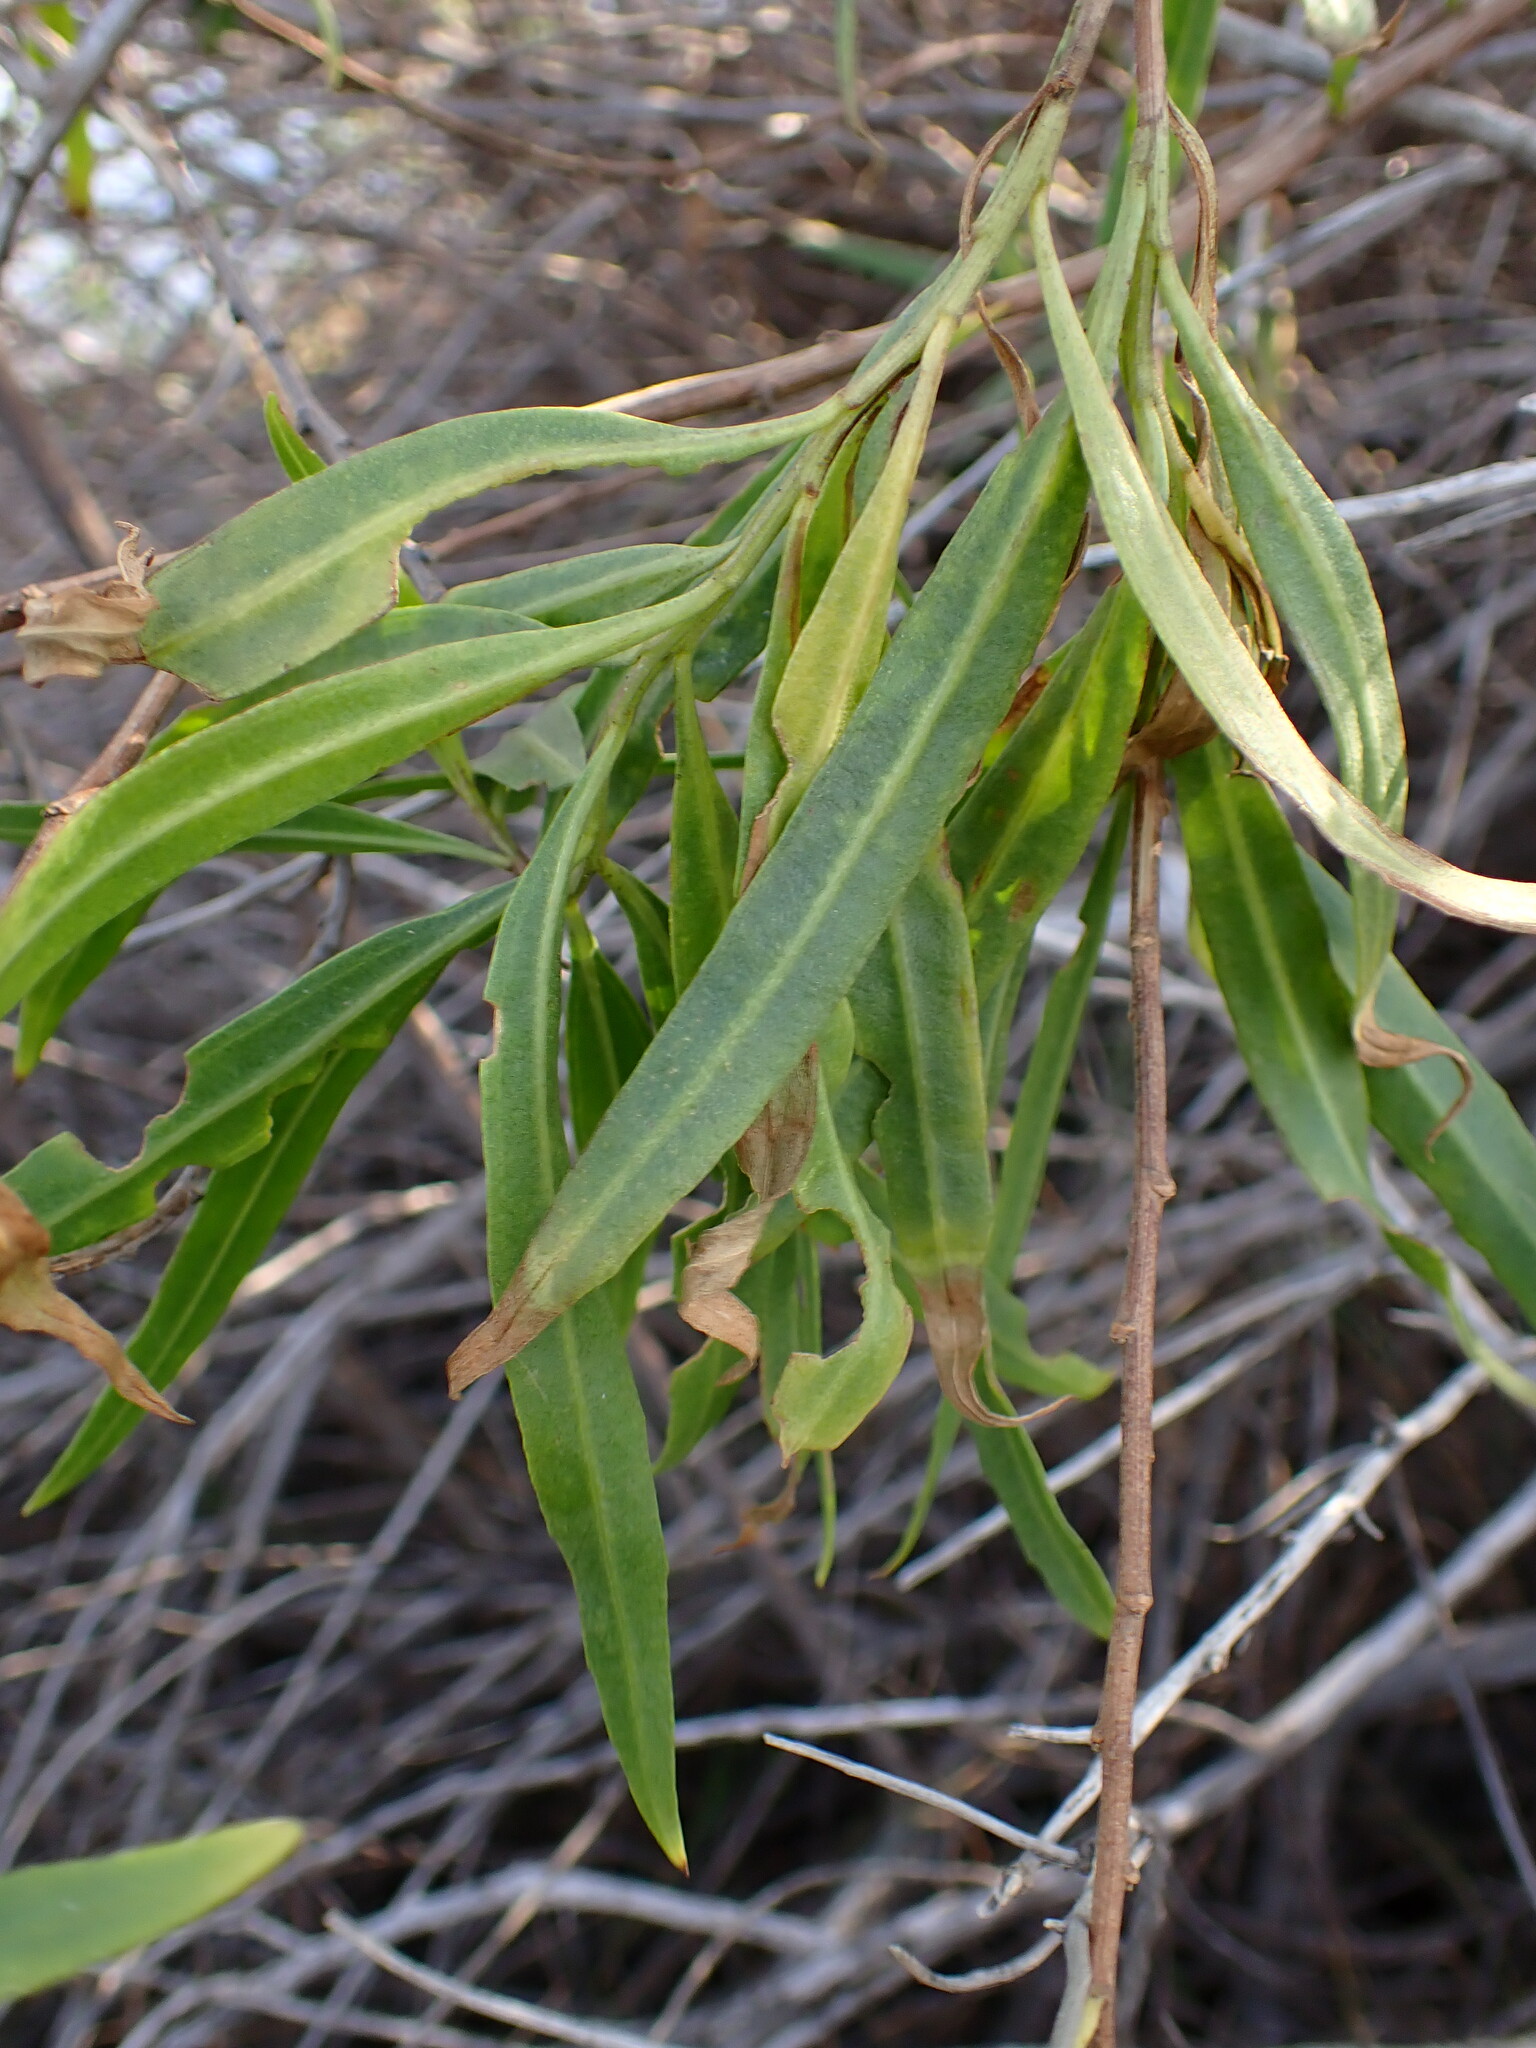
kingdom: Plantae
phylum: Tracheophyta
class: Magnoliopsida
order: Asterales
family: Asteraceae
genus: Baccharis
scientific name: Baccharis salicifolia
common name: Sticky baccharis
